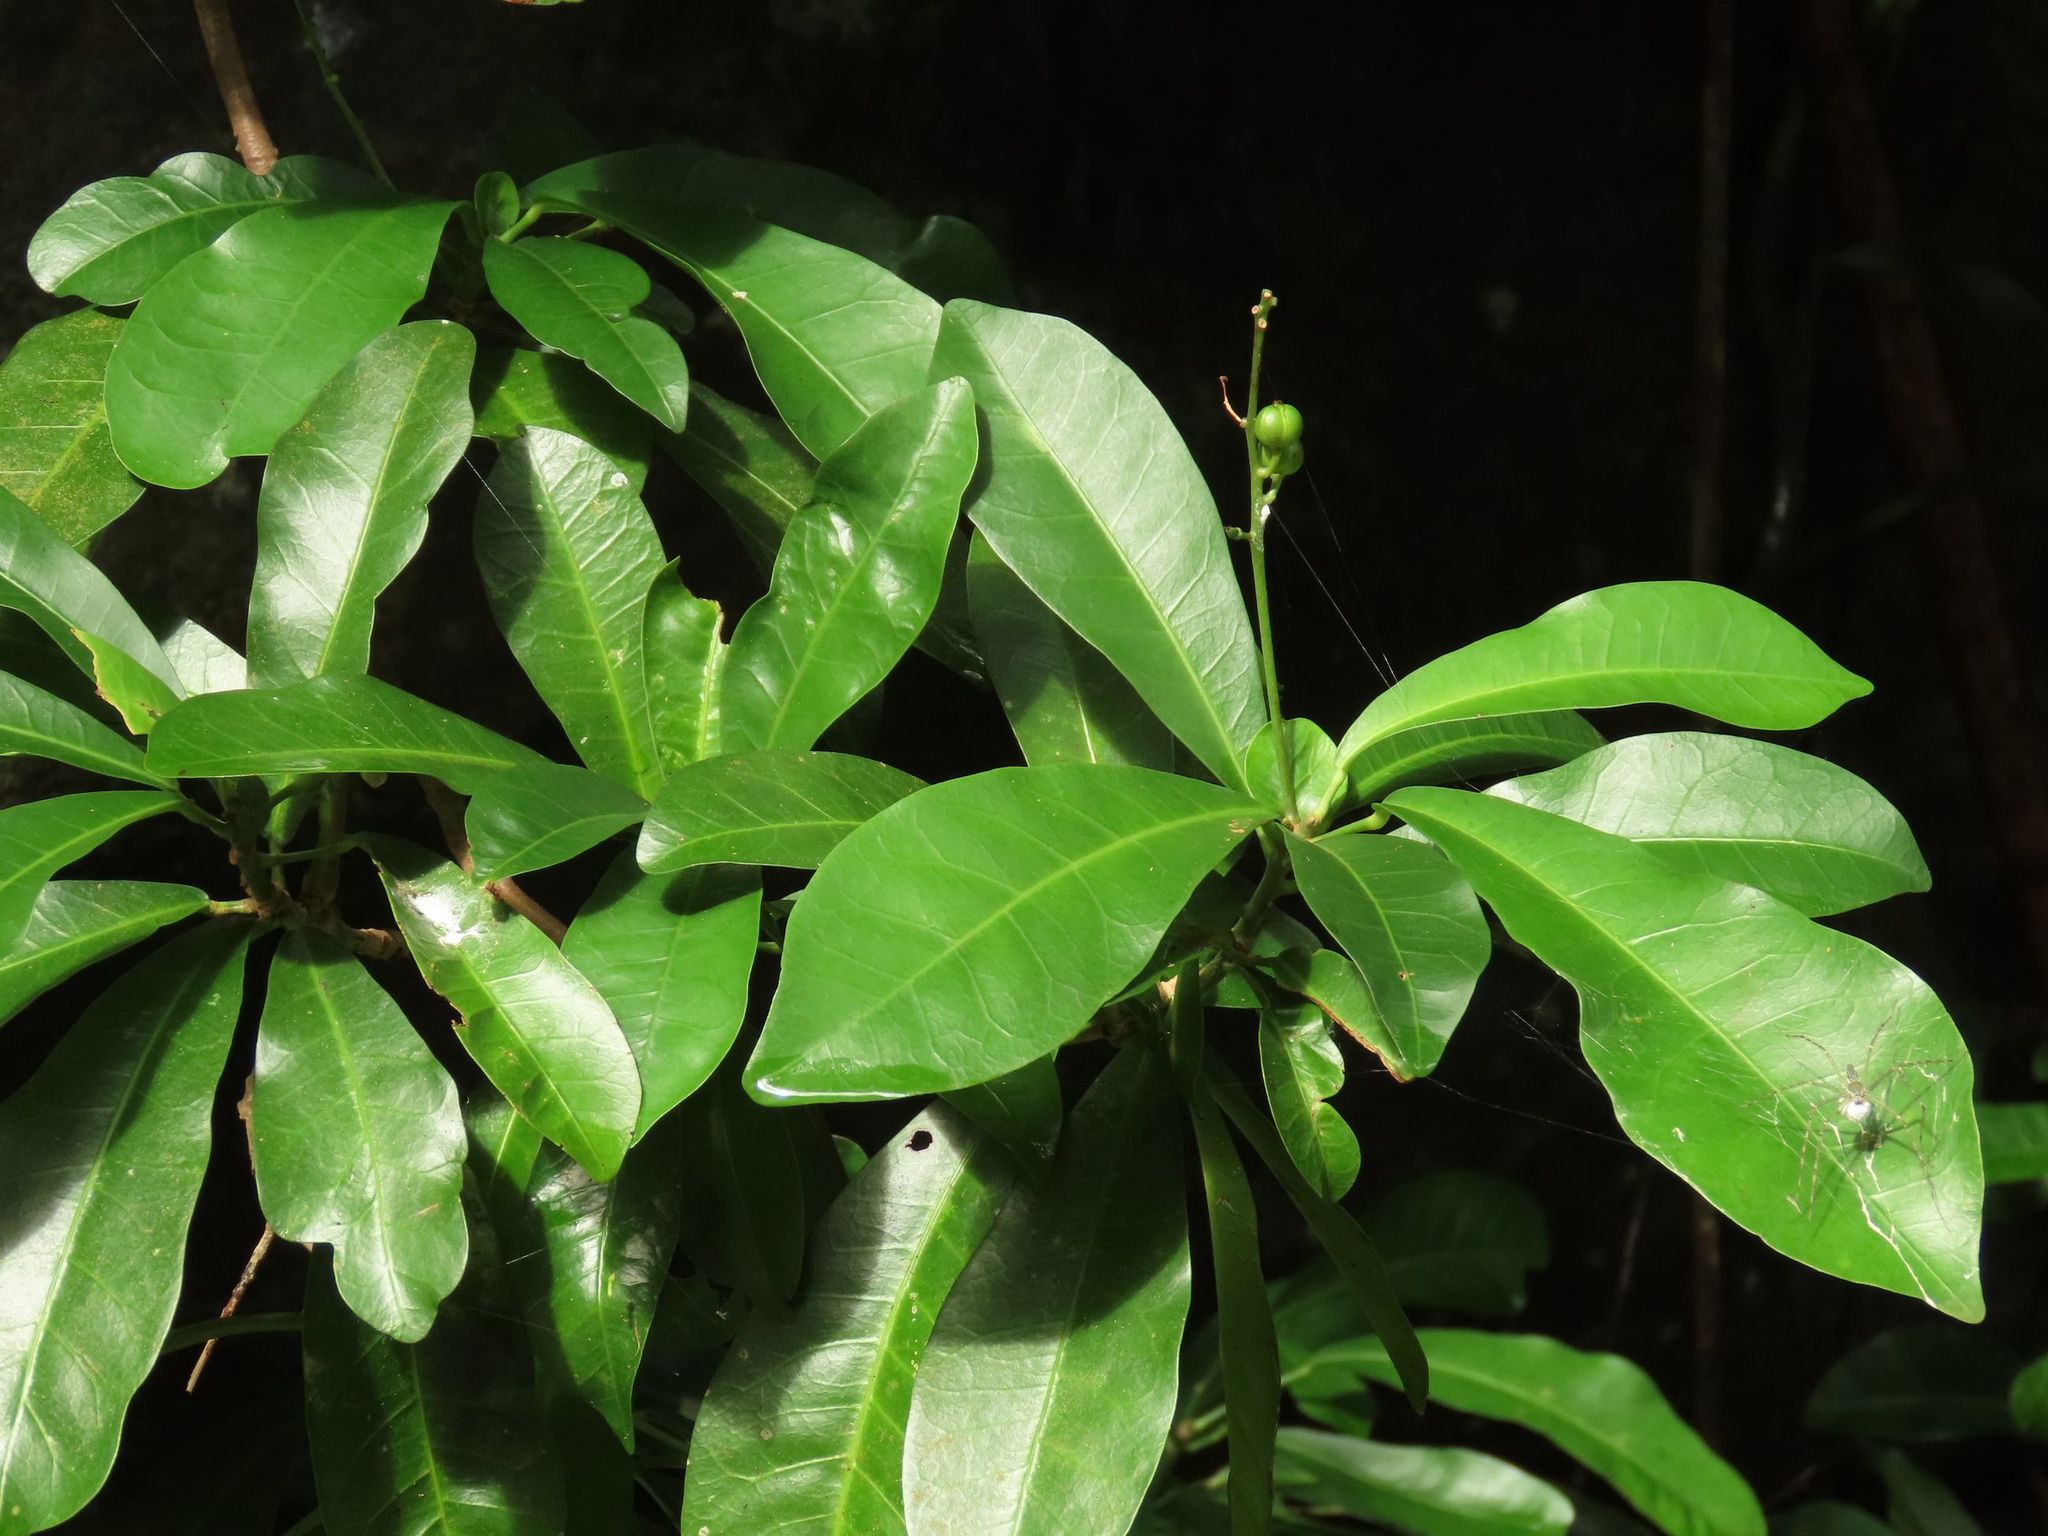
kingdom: Plantae
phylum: Tracheophyta
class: Magnoliopsida
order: Malpighiales
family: Euphorbiaceae
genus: Codiaeum
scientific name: Codiaeum variegatum
